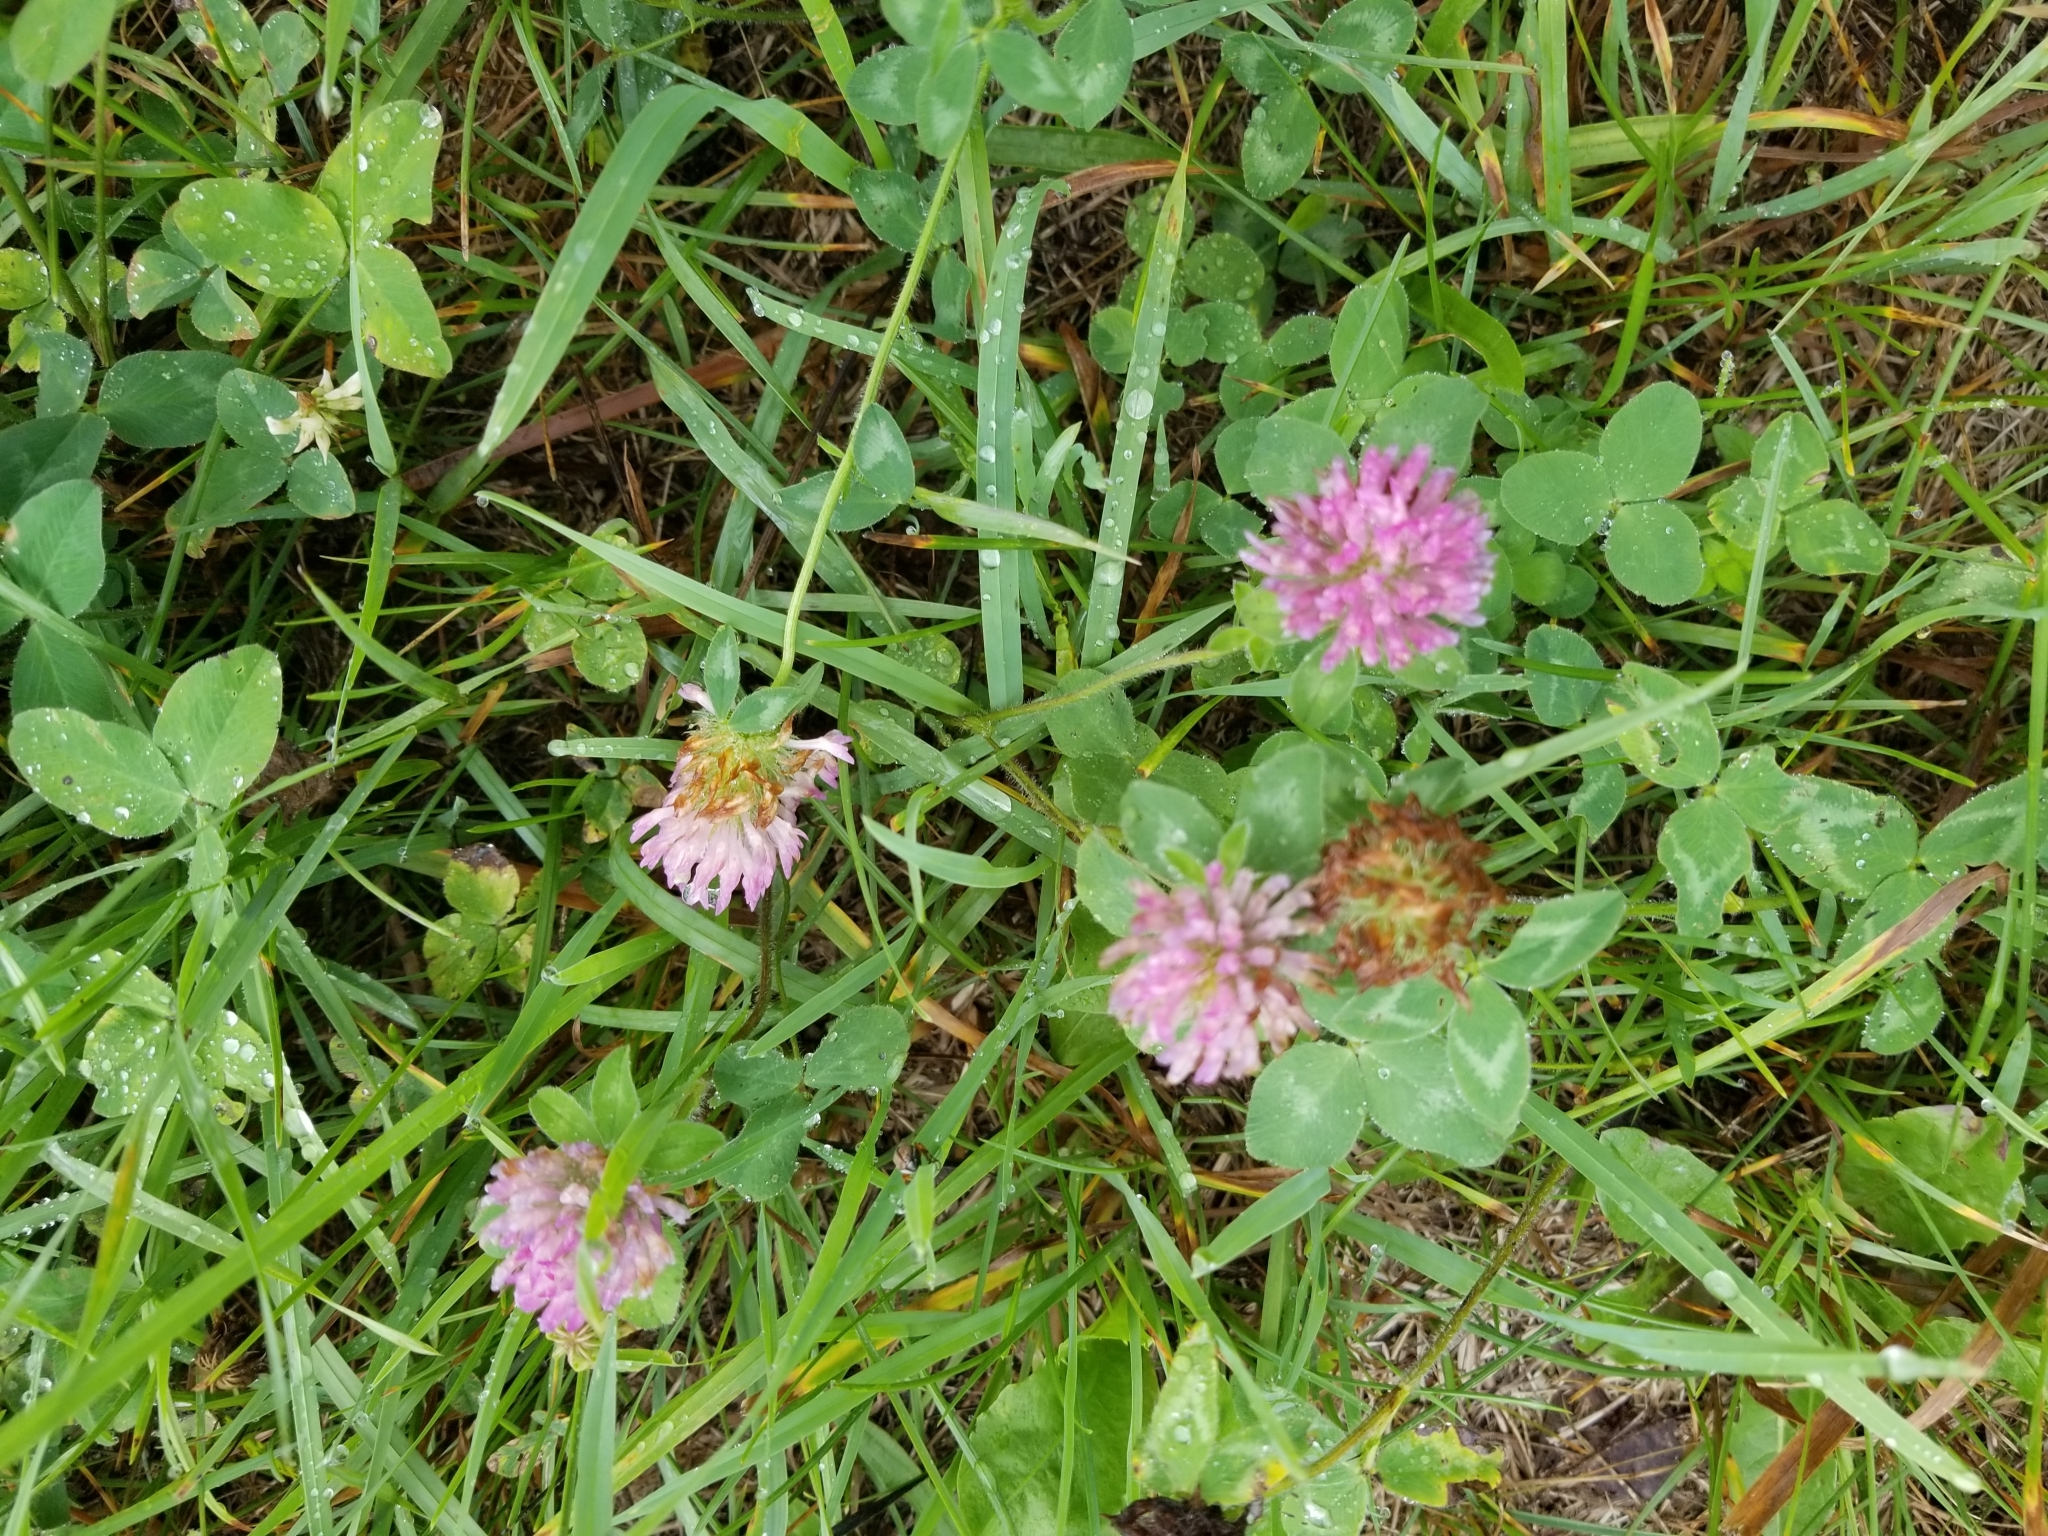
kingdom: Plantae
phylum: Tracheophyta
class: Magnoliopsida
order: Fabales
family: Fabaceae
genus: Trifolium
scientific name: Trifolium pratense
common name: Red clover
